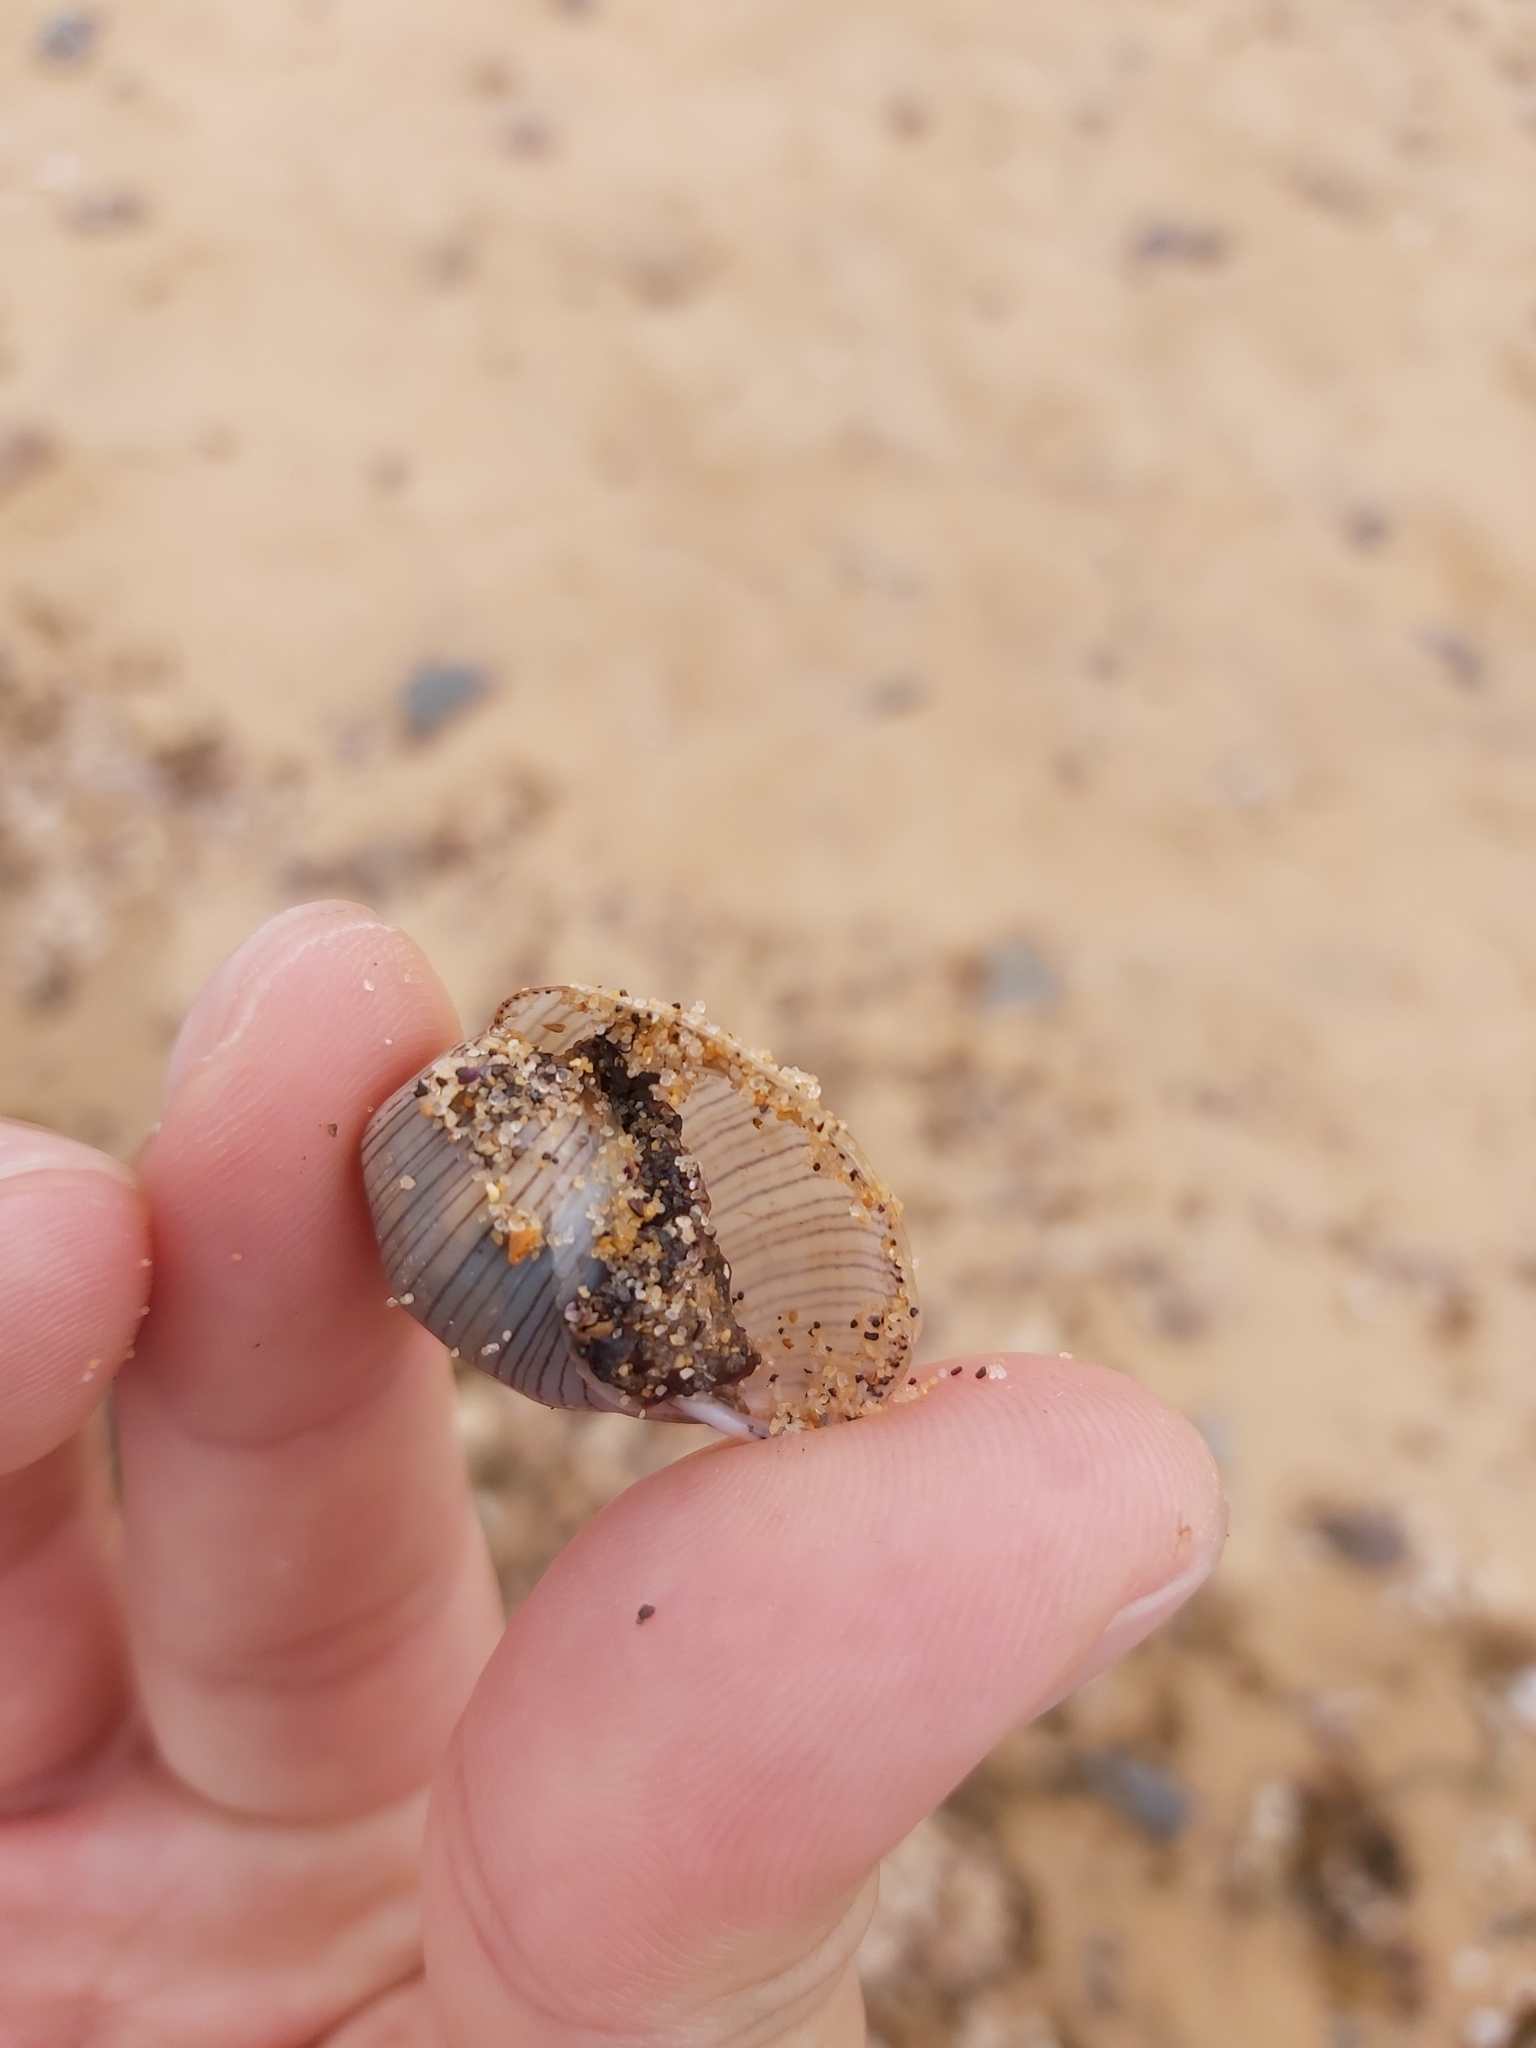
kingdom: Animalia
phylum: Mollusca
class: Gastropoda
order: Cephalaspidea
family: Aplustridae
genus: Hydatina
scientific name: Hydatina physis
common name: Brown-line paperbubble
